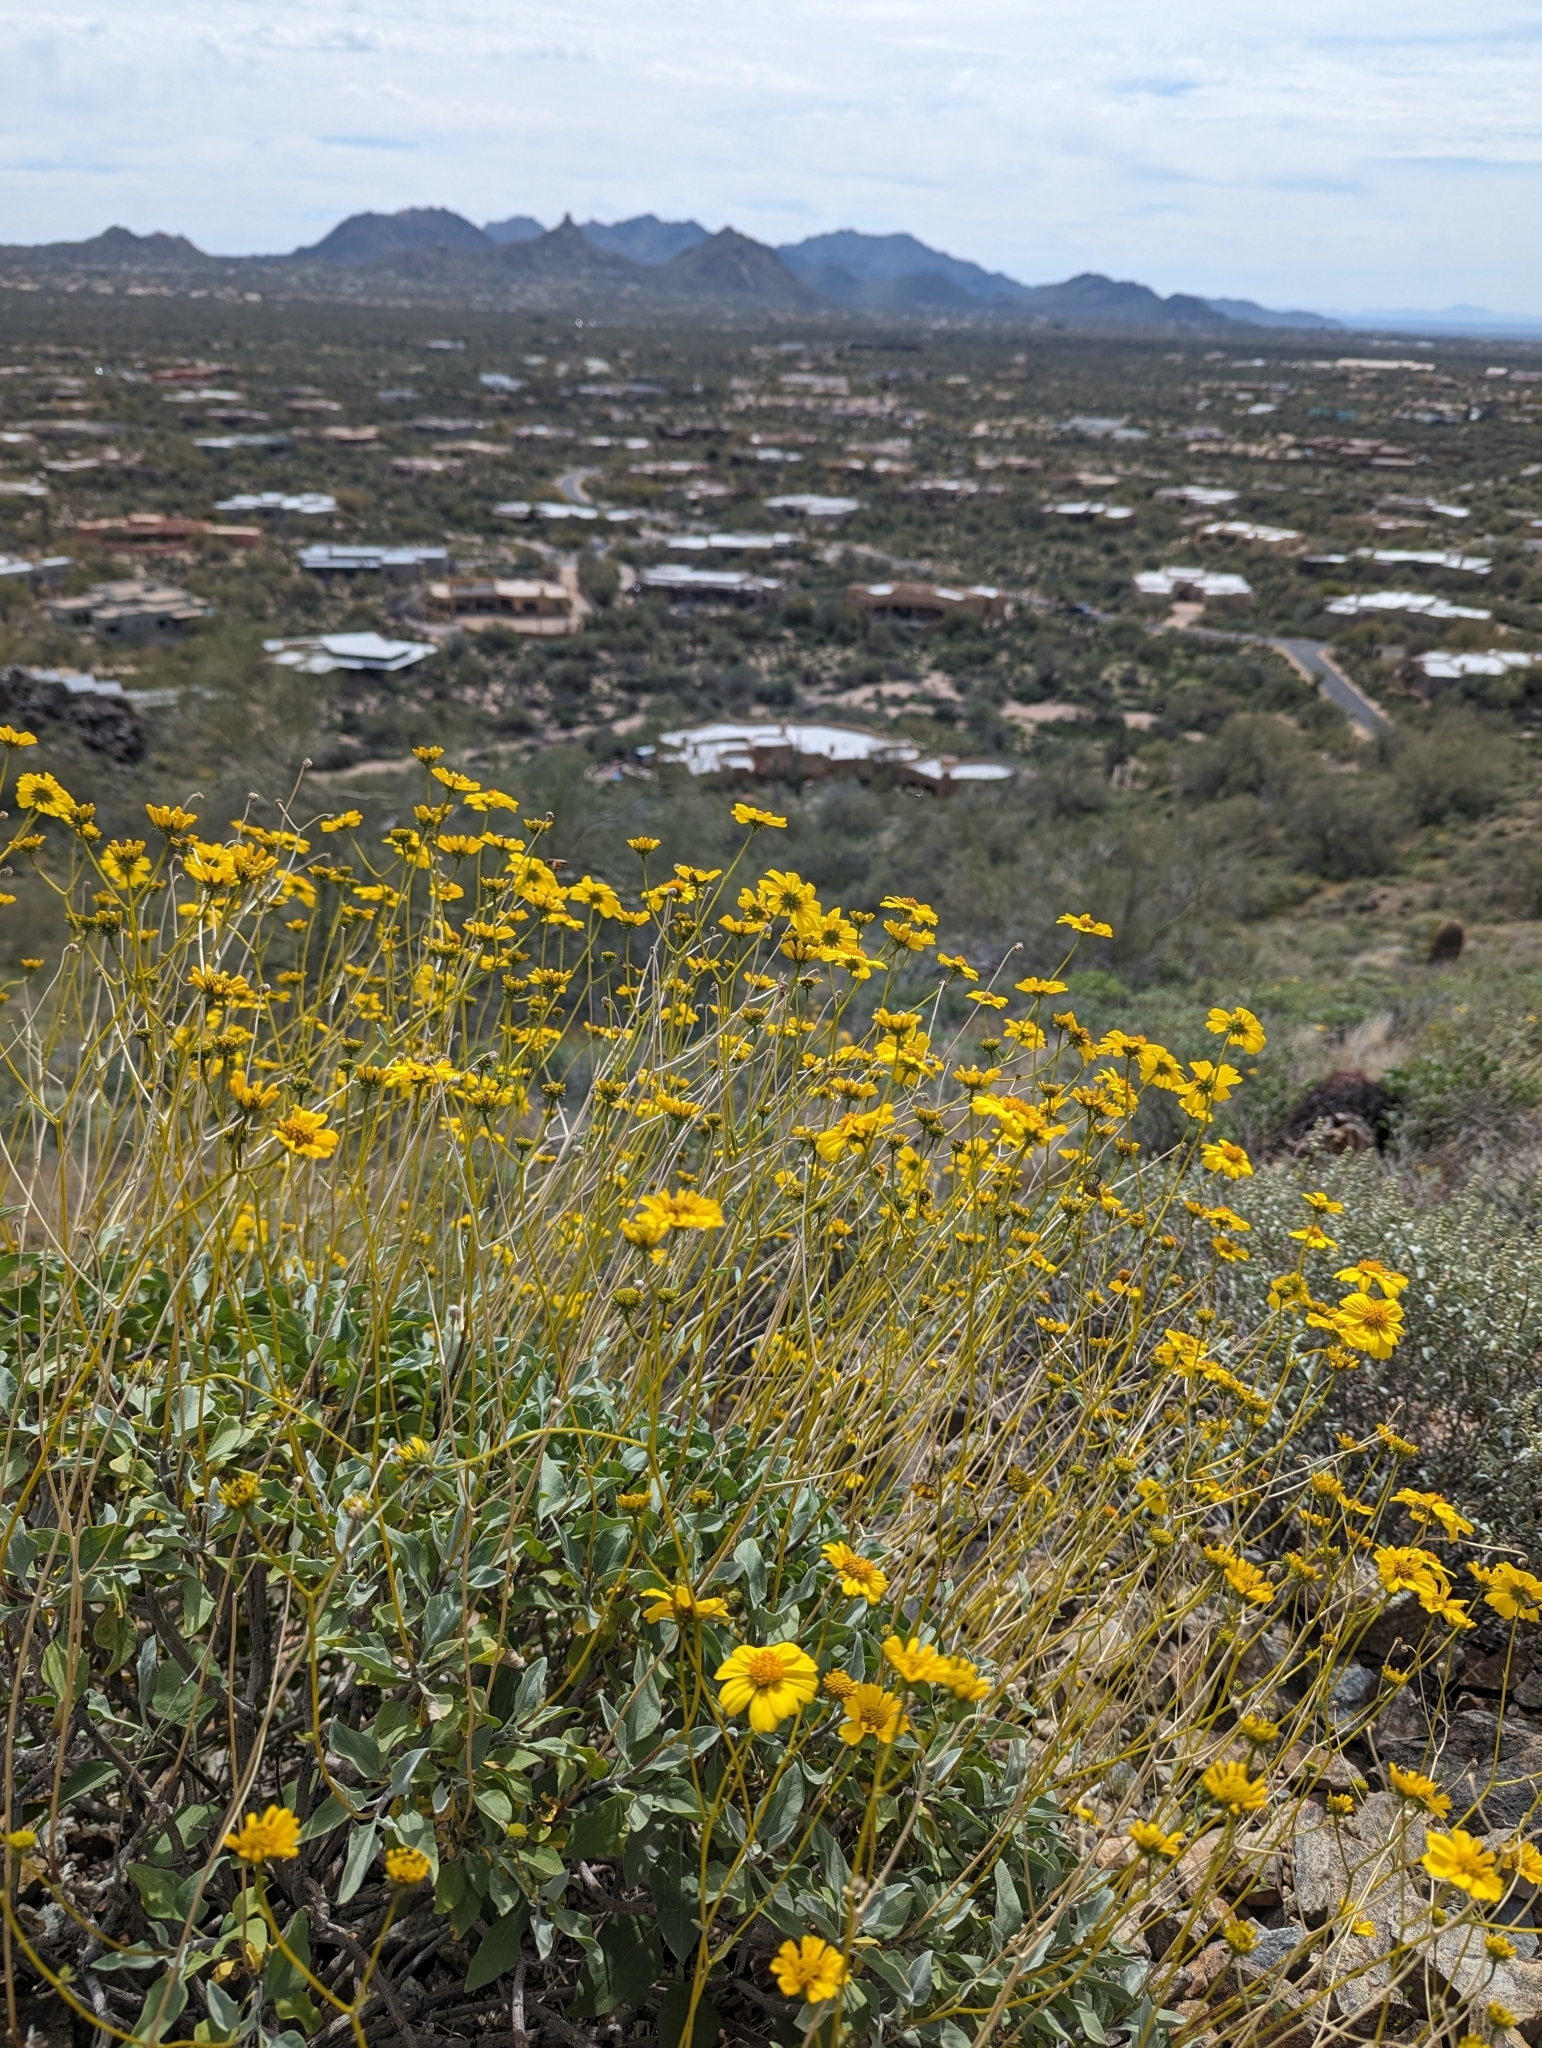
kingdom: Plantae
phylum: Tracheophyta
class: Magnoliopsida
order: Asterales
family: Asteraceae
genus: Encelia
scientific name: Encelia farinosa
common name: Brittlebush
